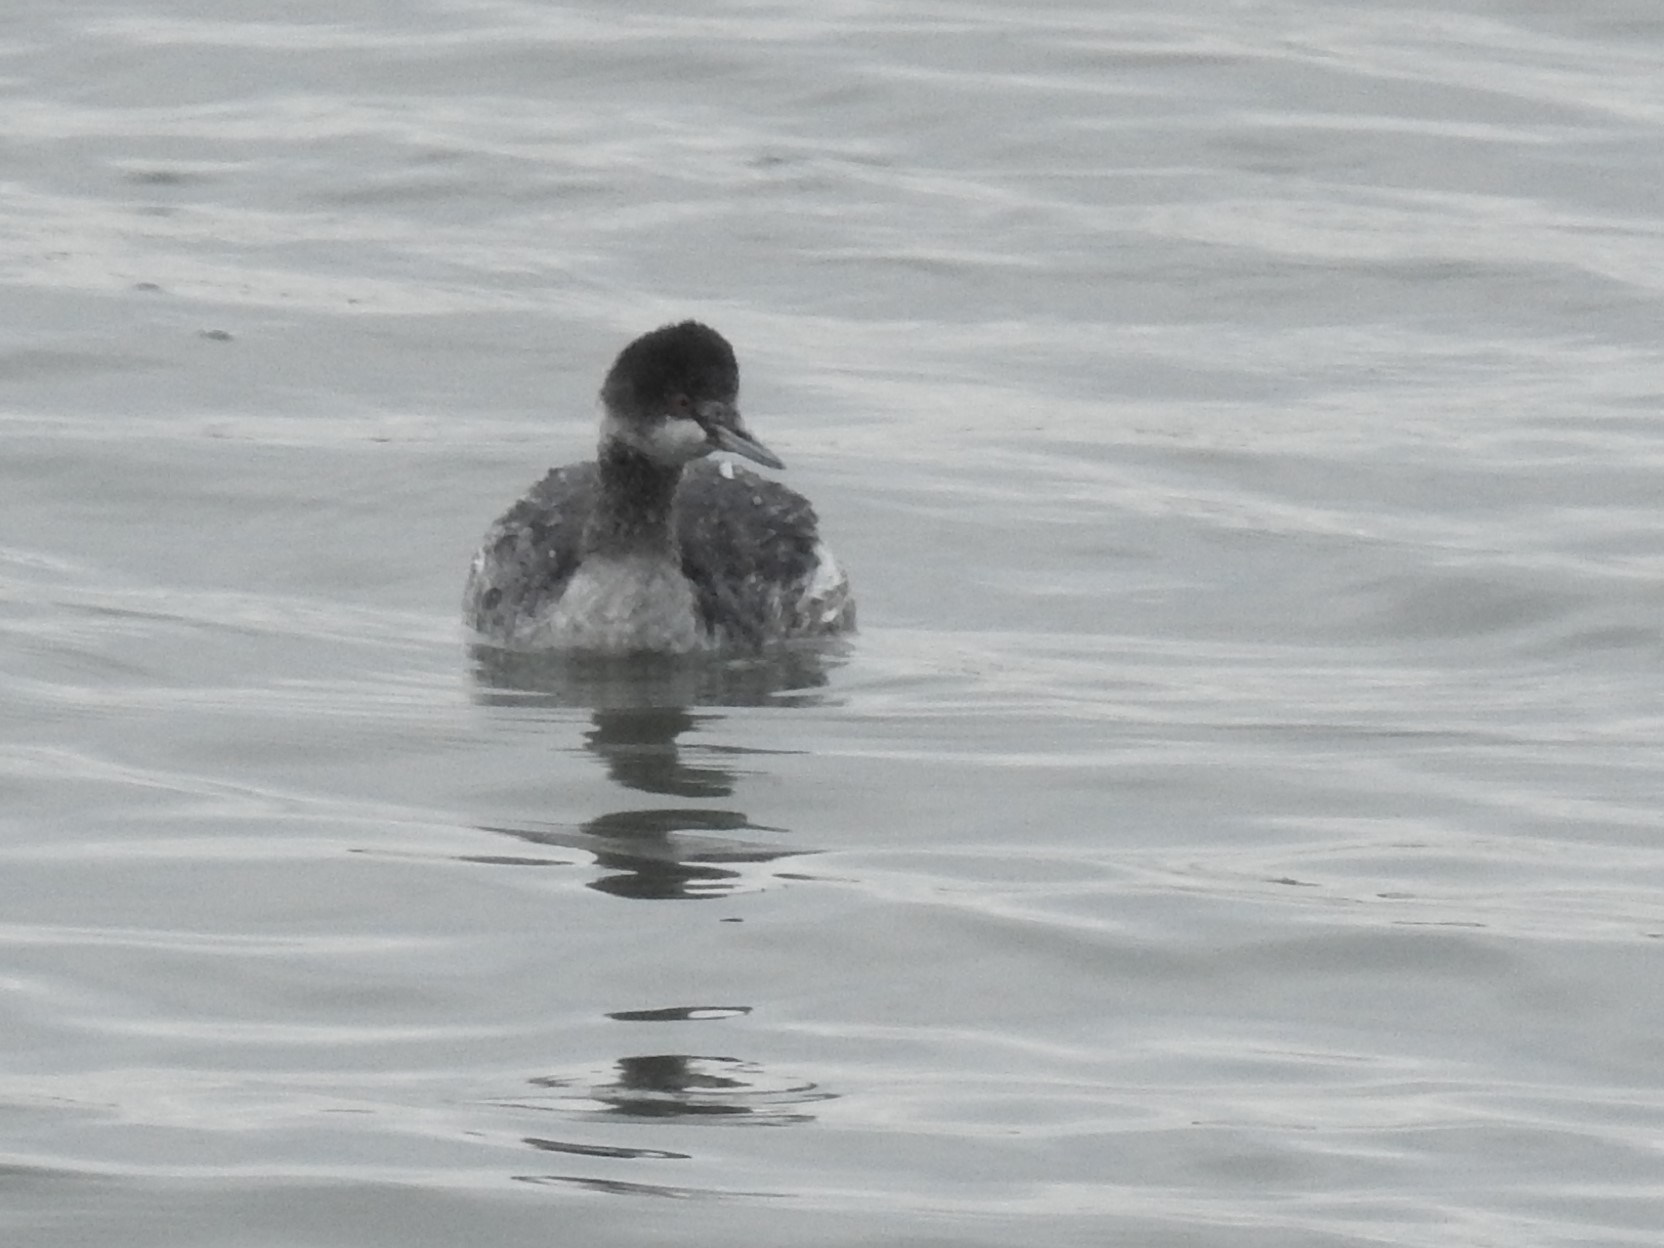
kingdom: Animalia
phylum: Chordata
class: Aves
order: Podicipediformes
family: Podicipedidae
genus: Podiceps
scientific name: Podiceps nigricollis
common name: Black-necked grebe
